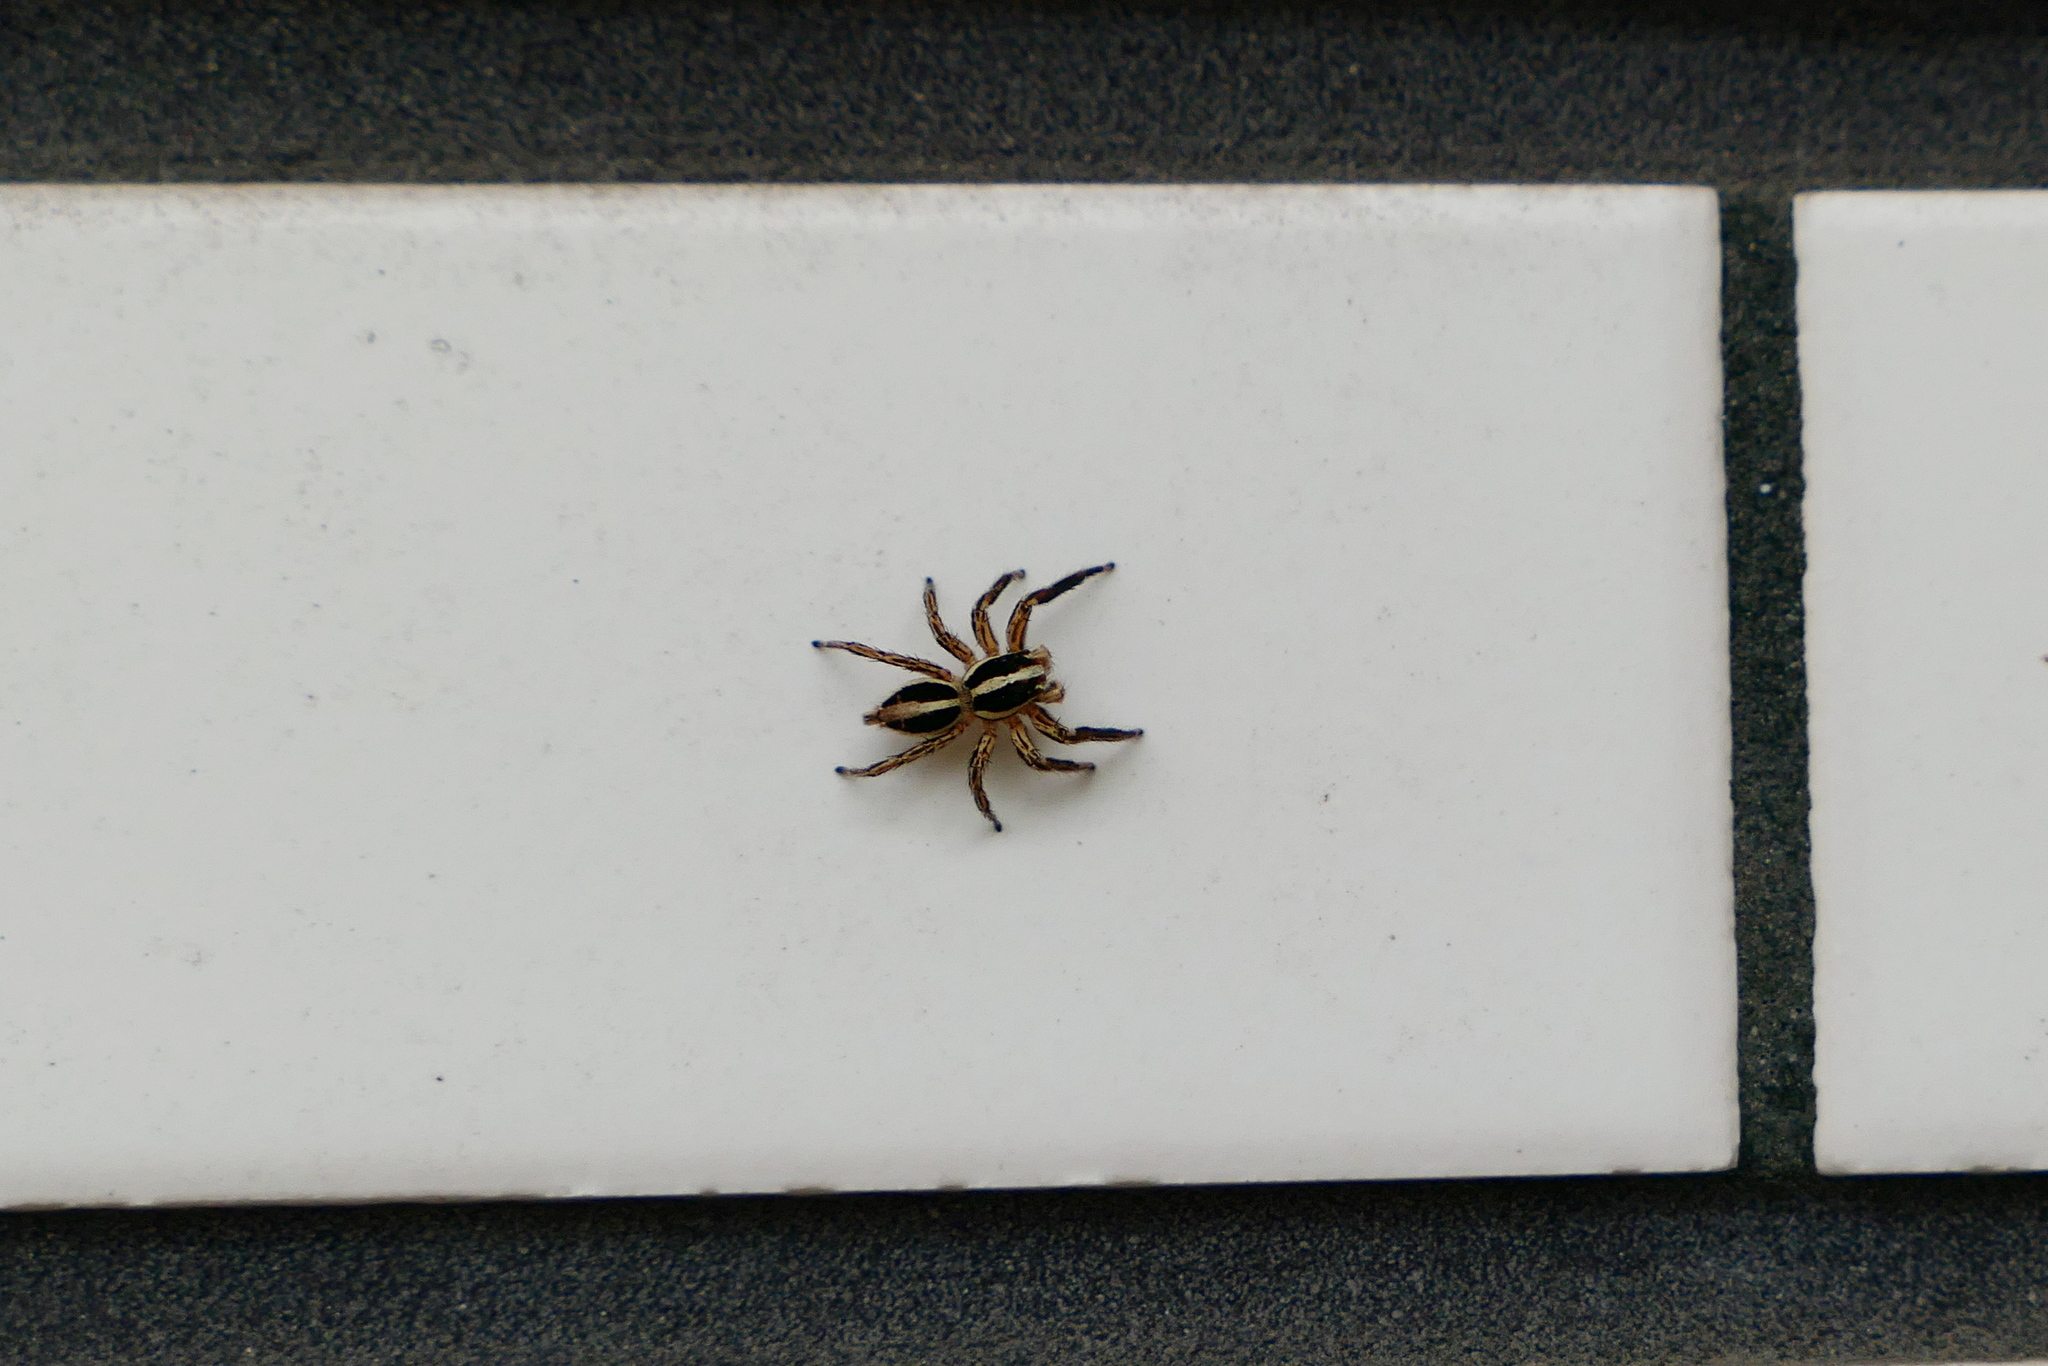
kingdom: Animalia
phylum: Arthropoda
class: Arachnida
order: Araneae
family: Salticidae
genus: Plexippus
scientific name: Plexippus paykulli
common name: Pantropical jumper
